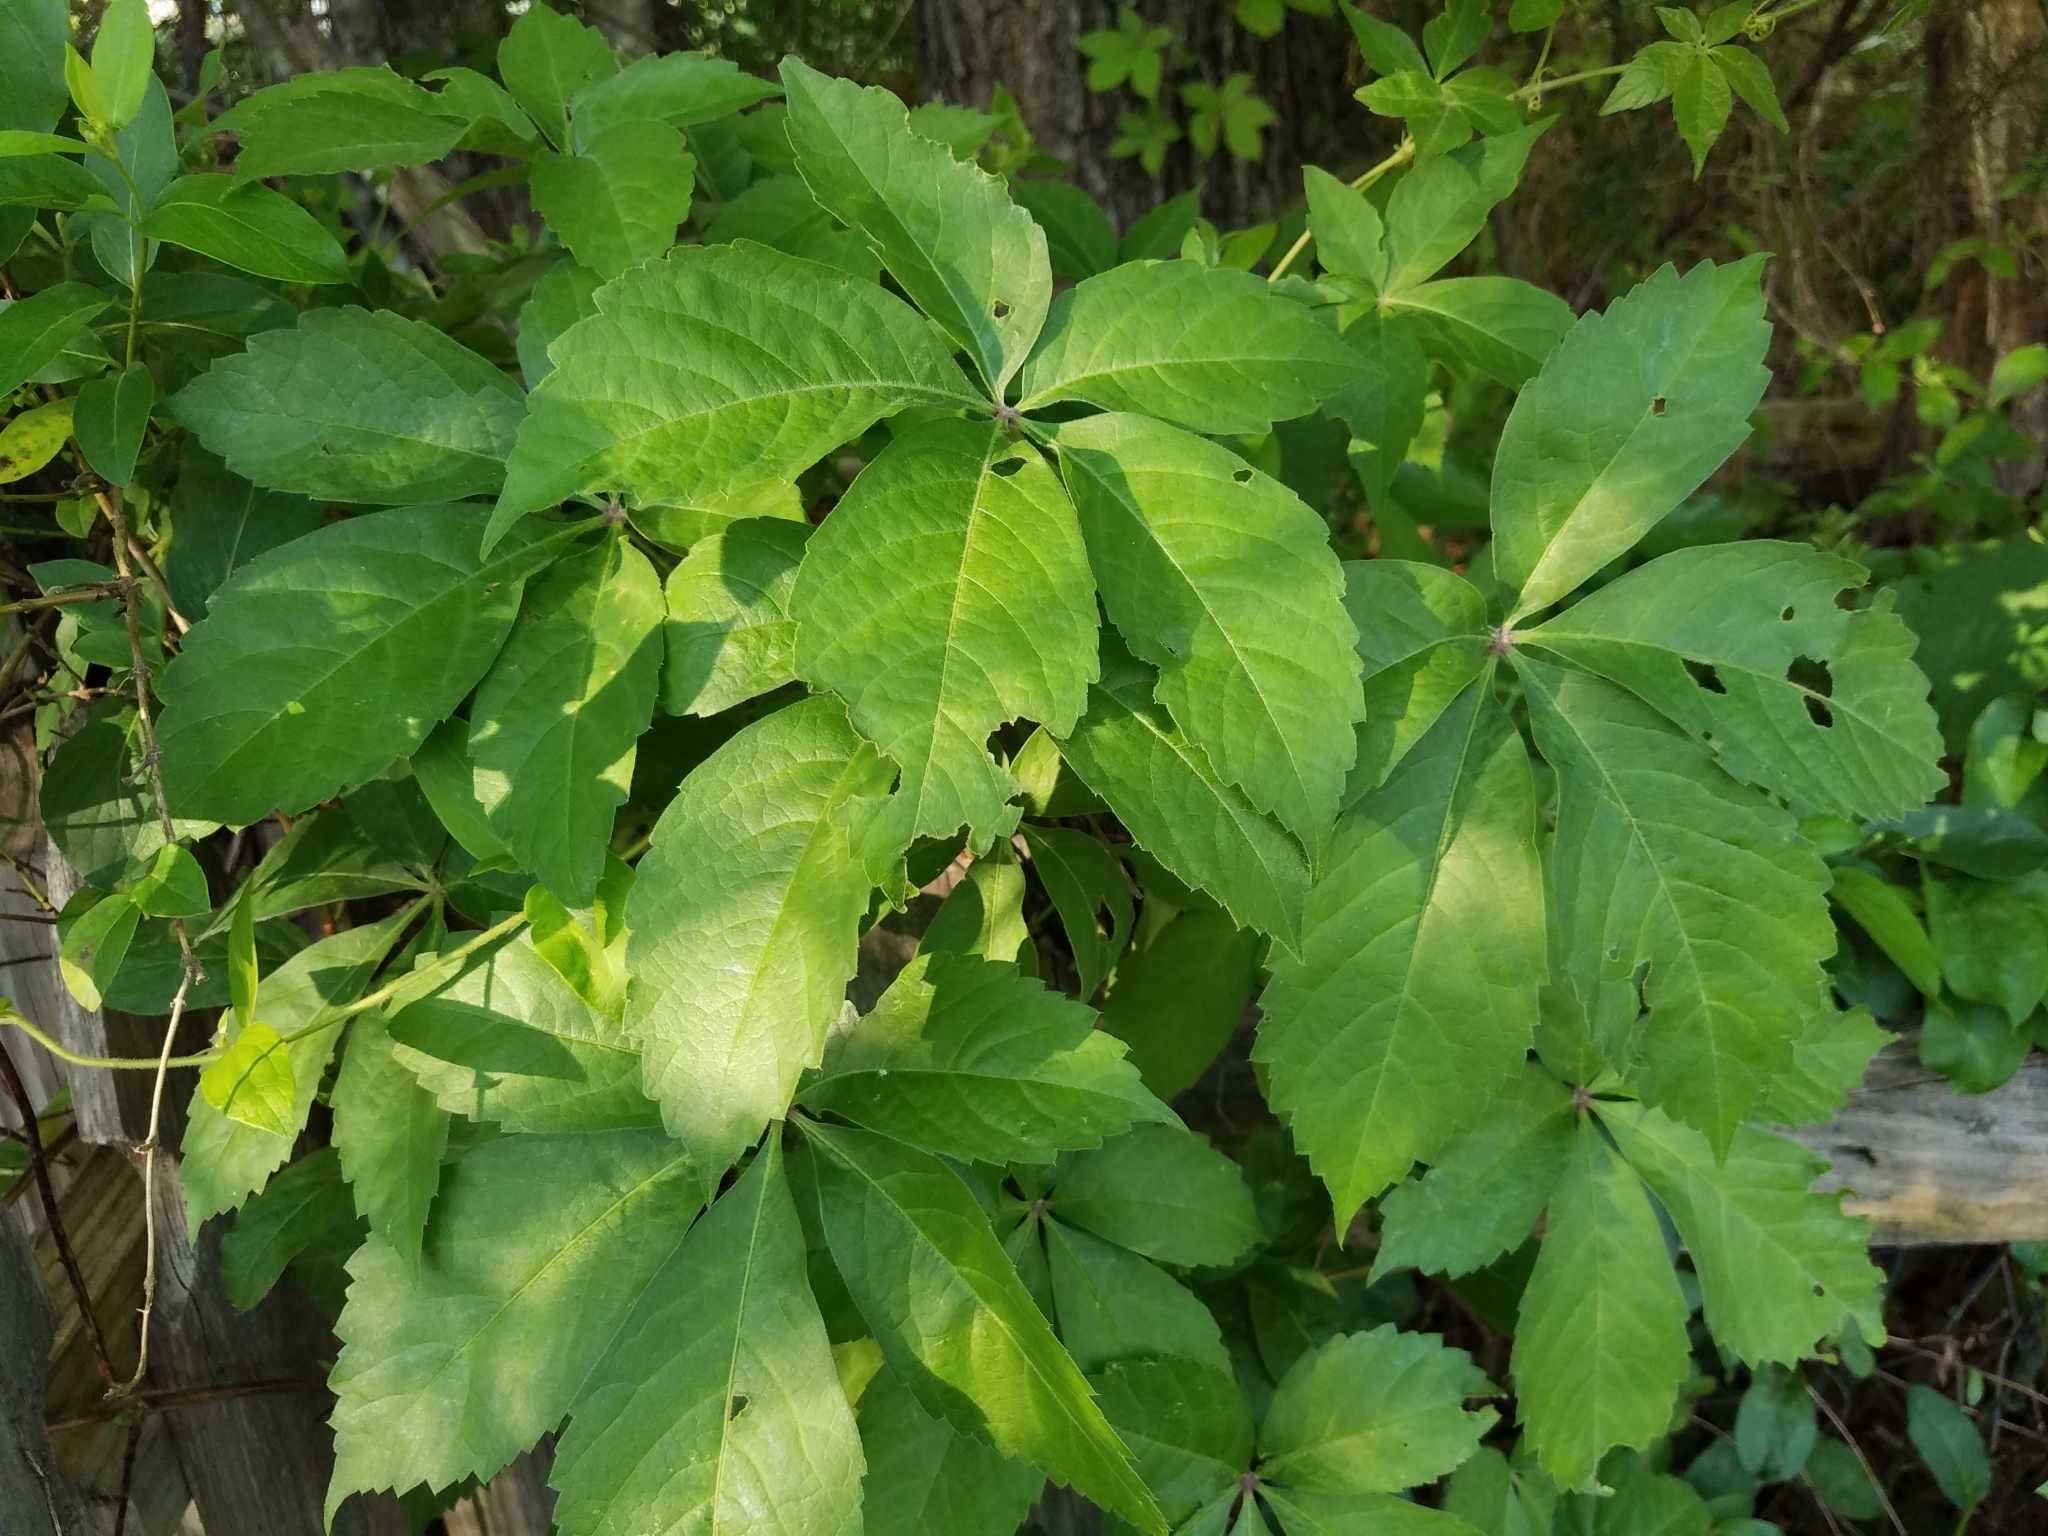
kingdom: Plantae
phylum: Tracheophyta
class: Magnoliopsida
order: Vitales
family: Vitaceae
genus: Parthenocissus
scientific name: Parthenocissus quinquefolia
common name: Virginia-creeper
